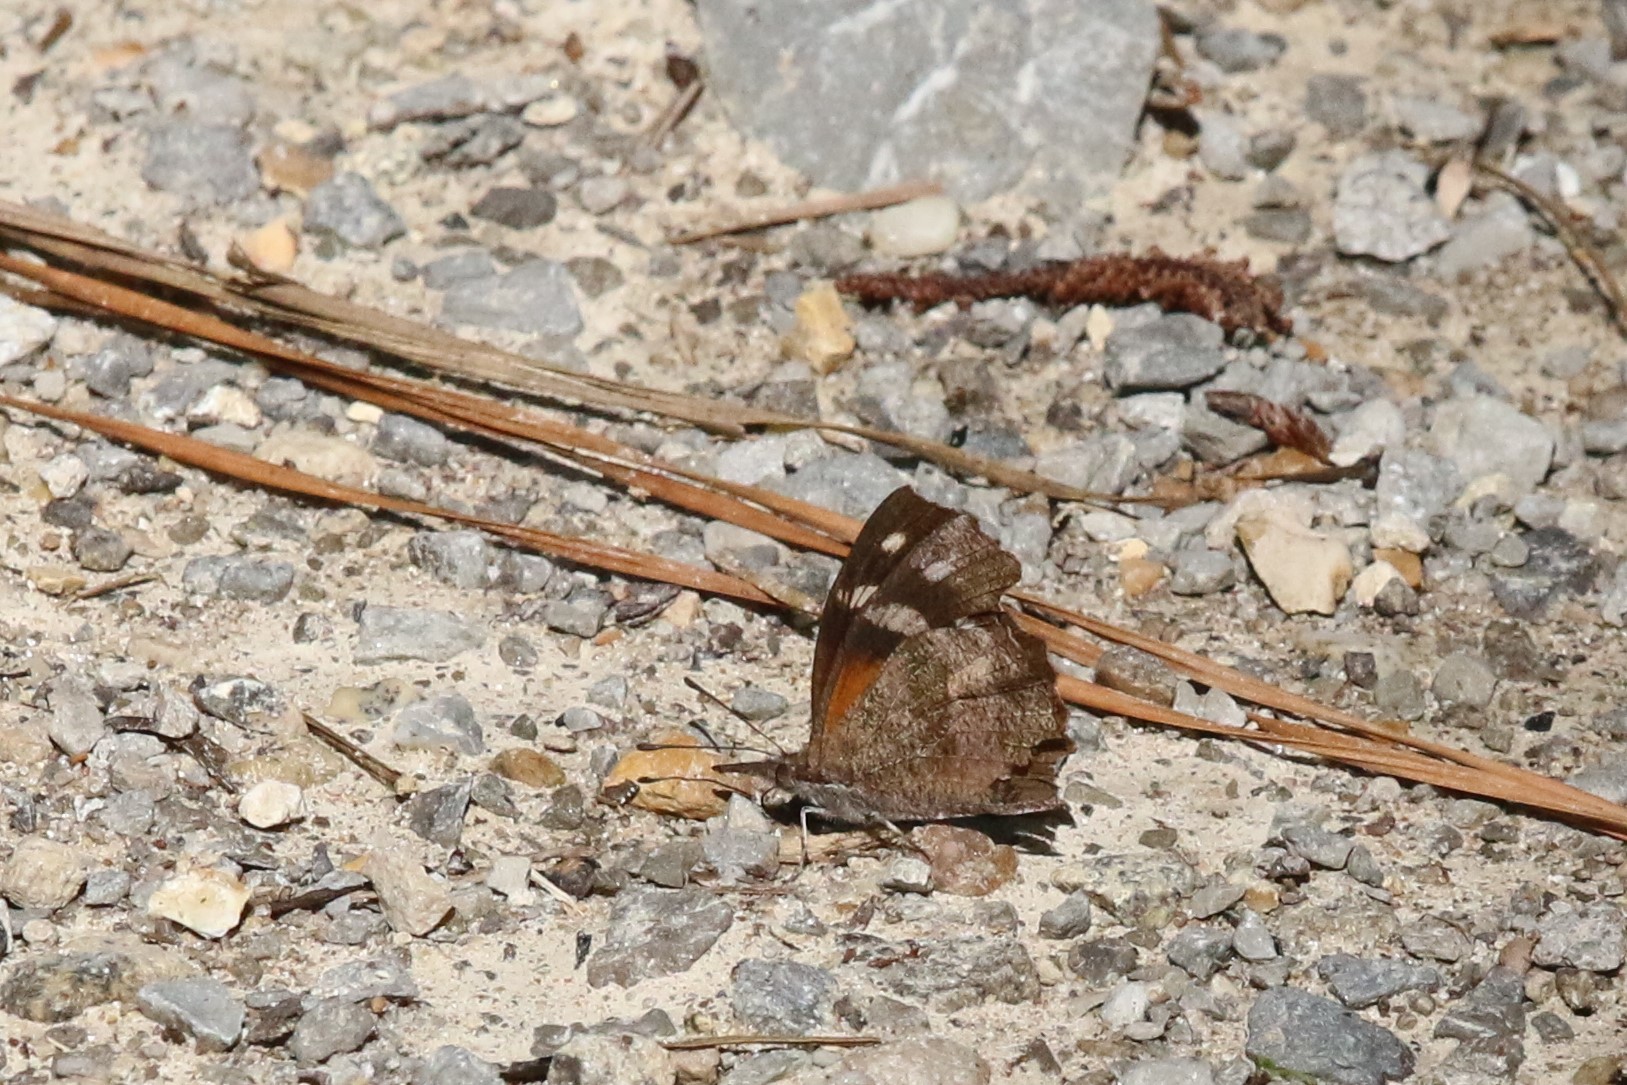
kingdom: Animalia
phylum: Arthropoda
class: Insecta
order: Lepidoptera
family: Nymphalidae
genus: Libytheana
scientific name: Libytheana carinenta
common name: American snout
